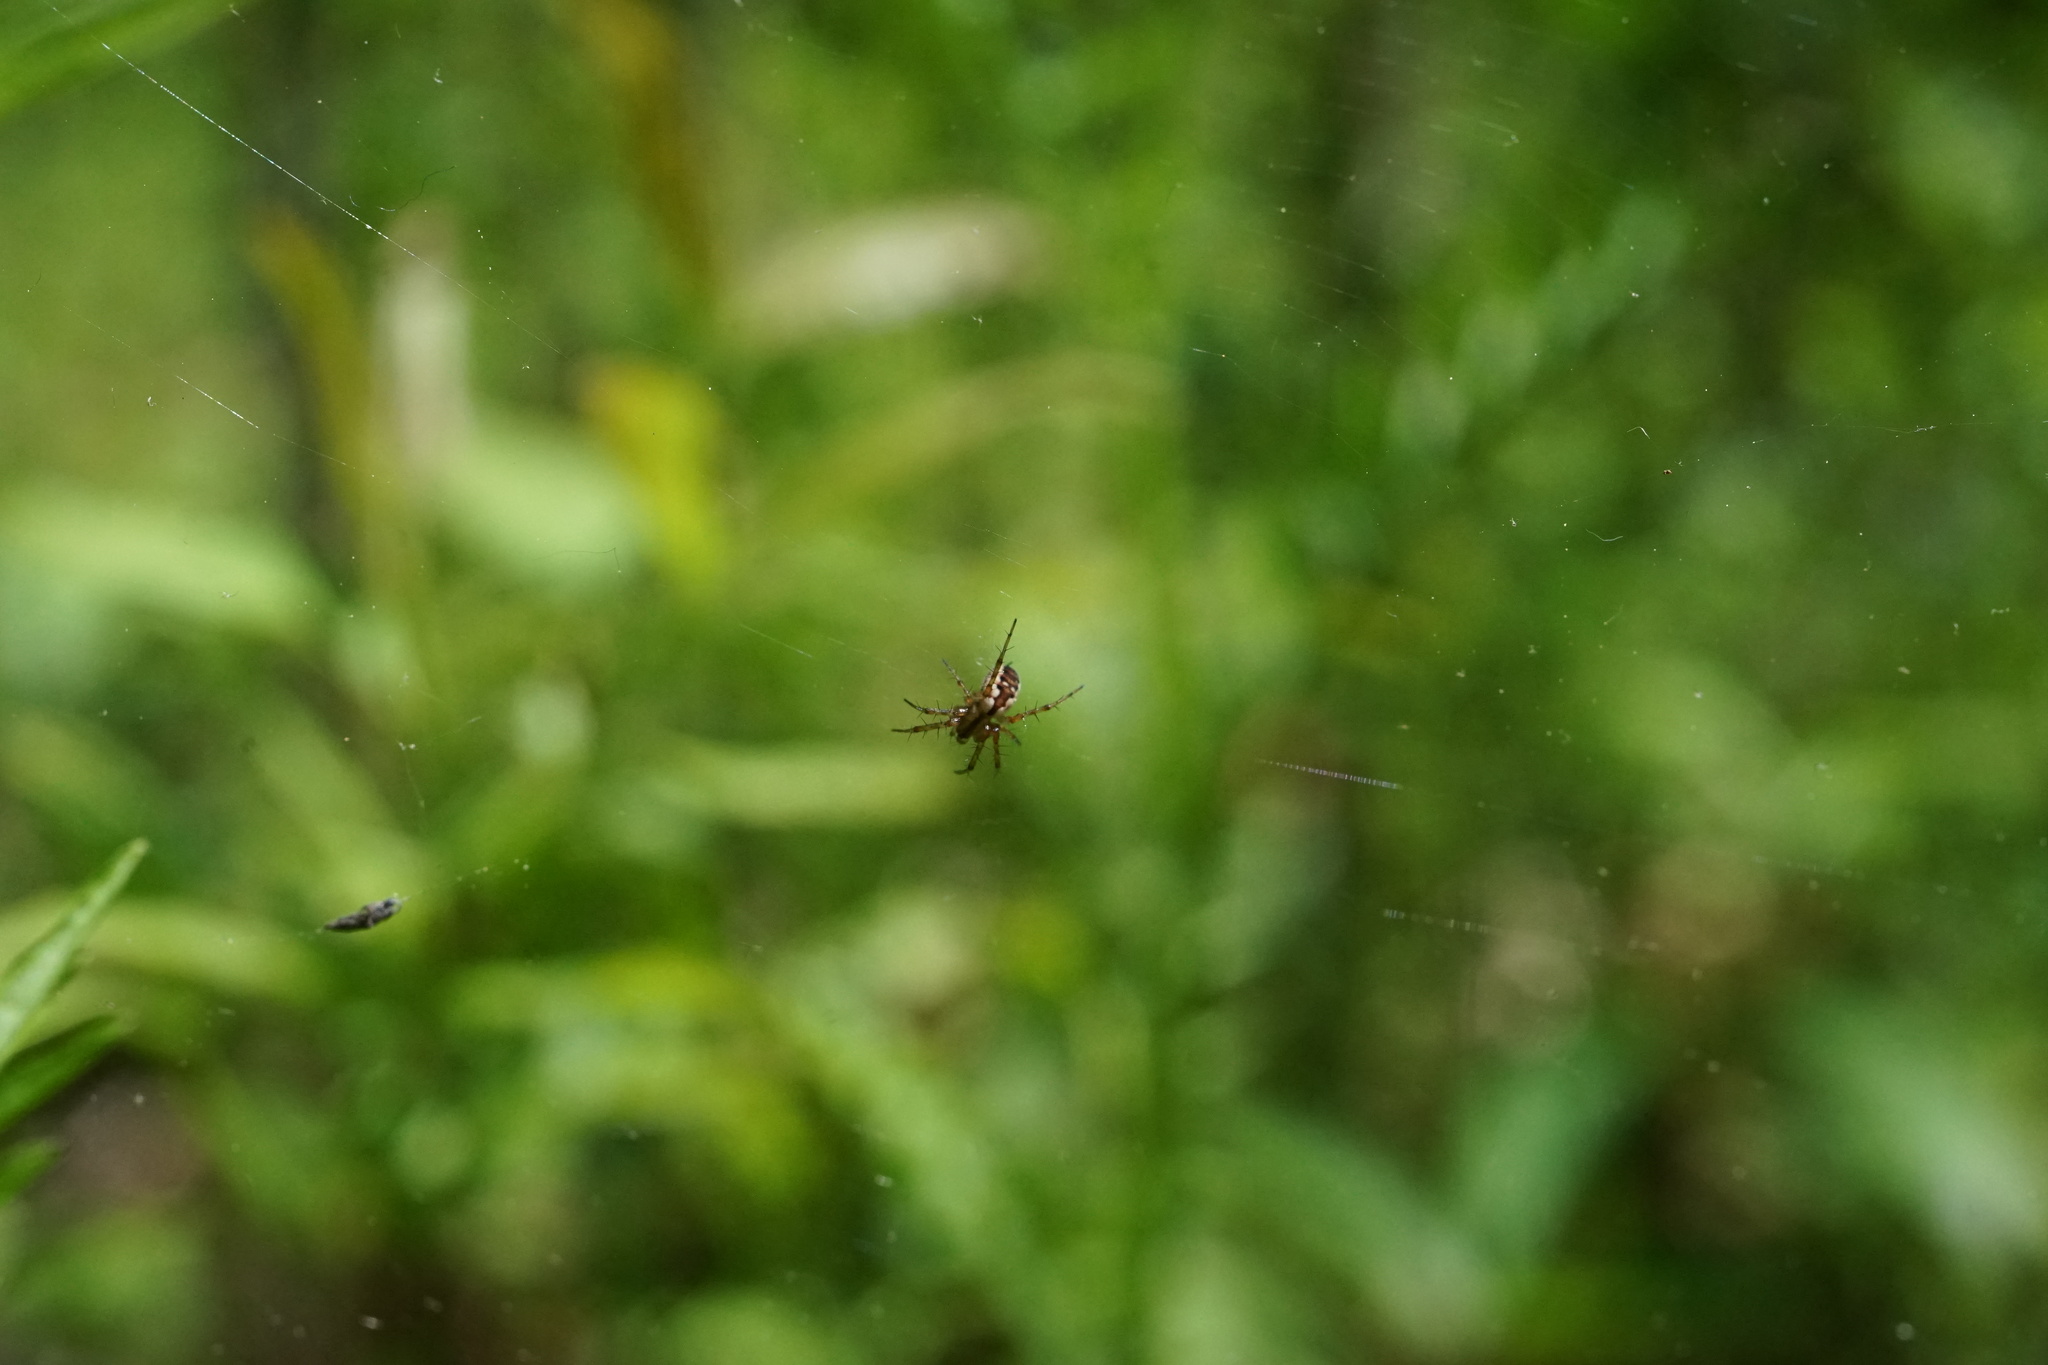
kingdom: Animalia
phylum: Arthropoda
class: Arachnida
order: Araneae
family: Araneidae
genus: Mangora
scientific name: Mangora placida
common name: Tuft-legged orbweaver
